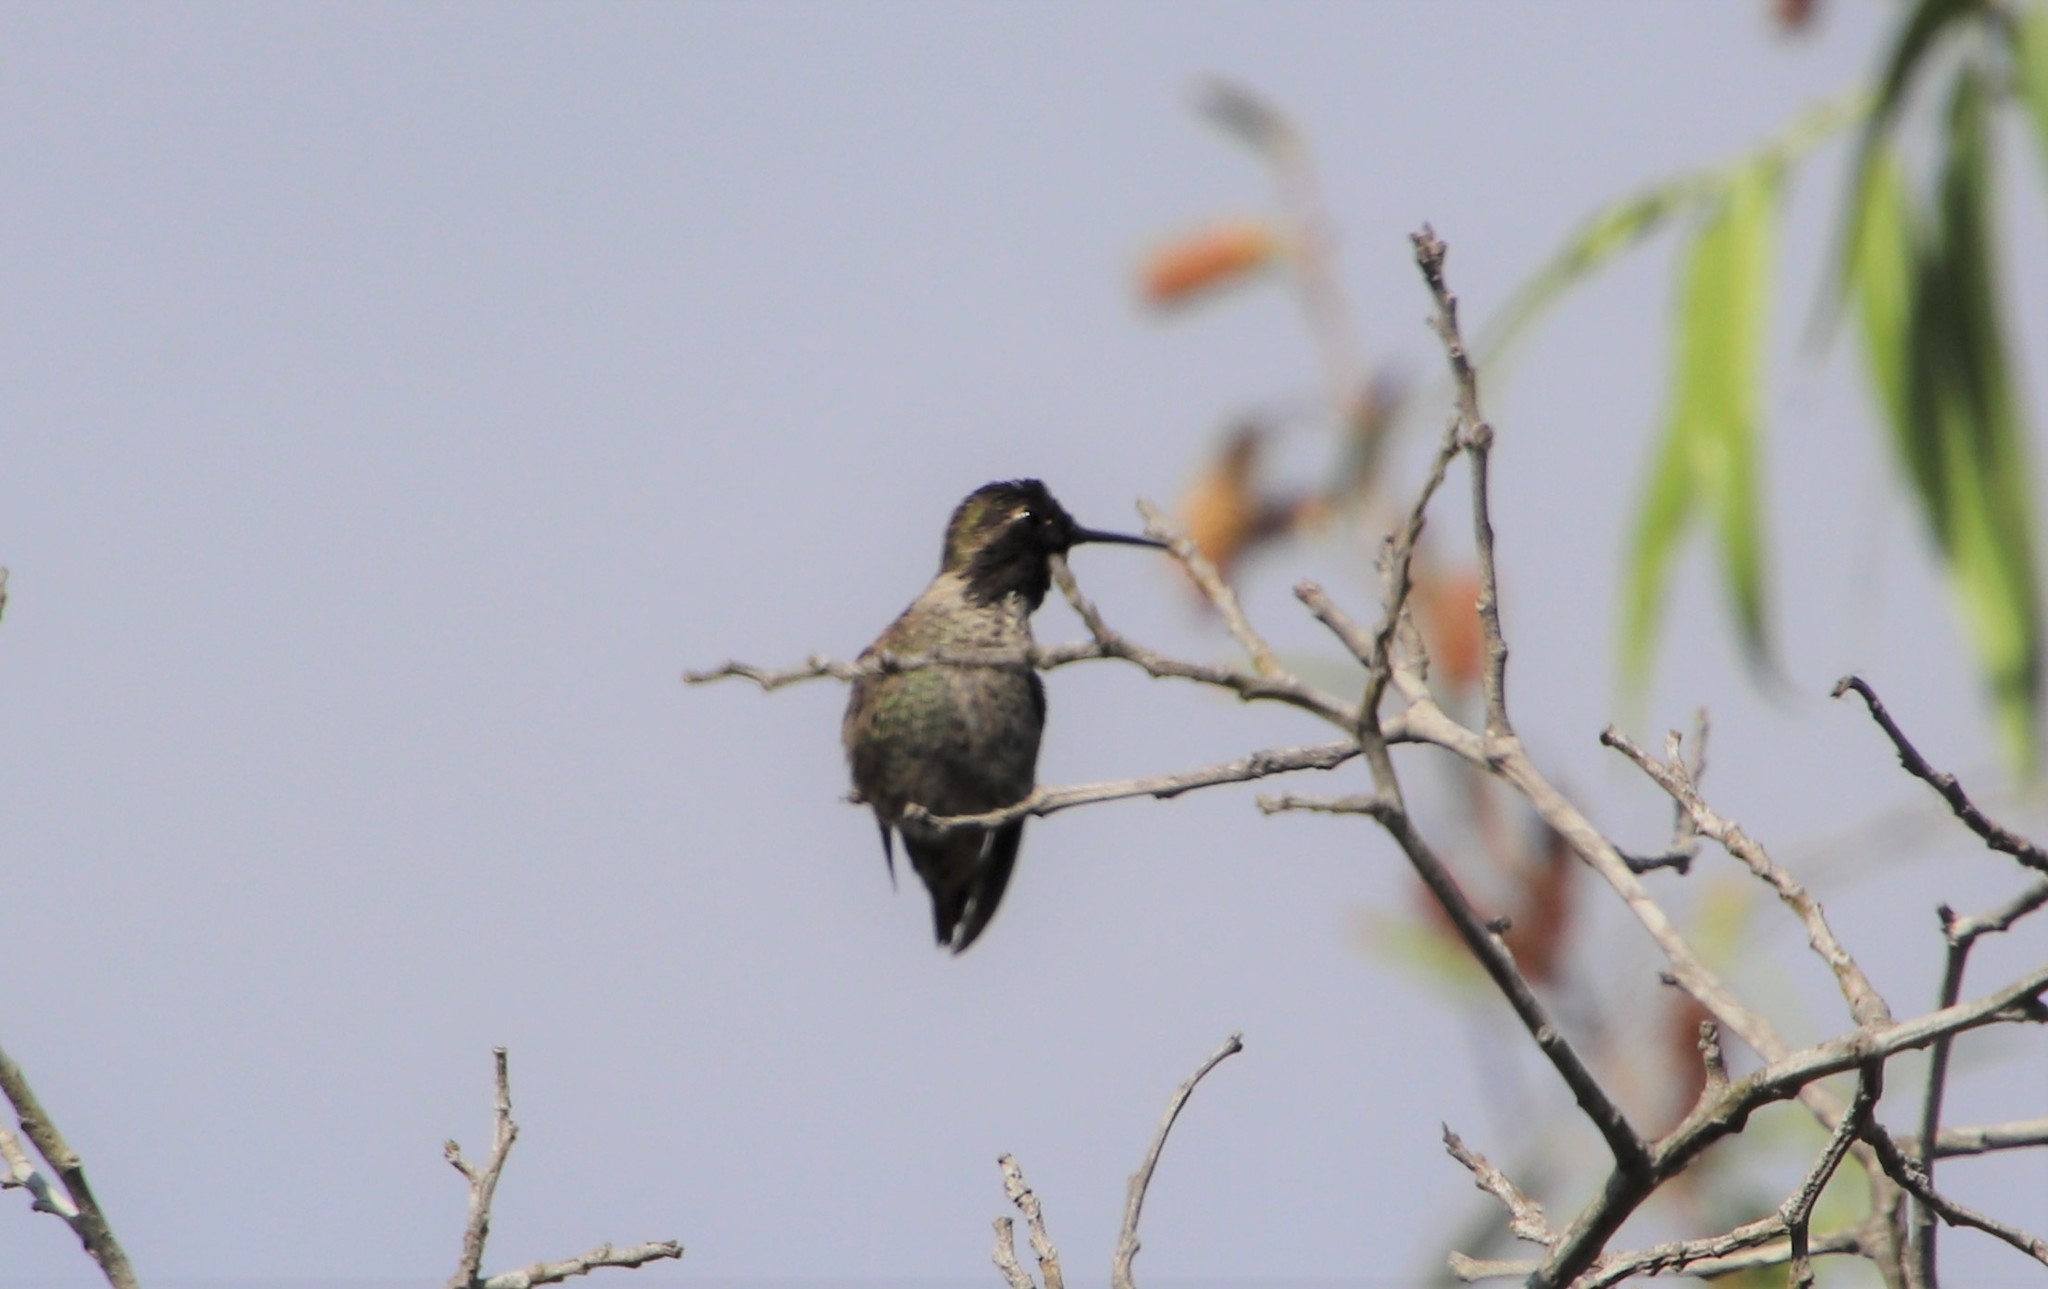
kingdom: Animalia
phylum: Chordata
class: Aves
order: Apodiformes
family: Trochilidae
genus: Calypte
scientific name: Calypte anna
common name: Anna's hummingbird
